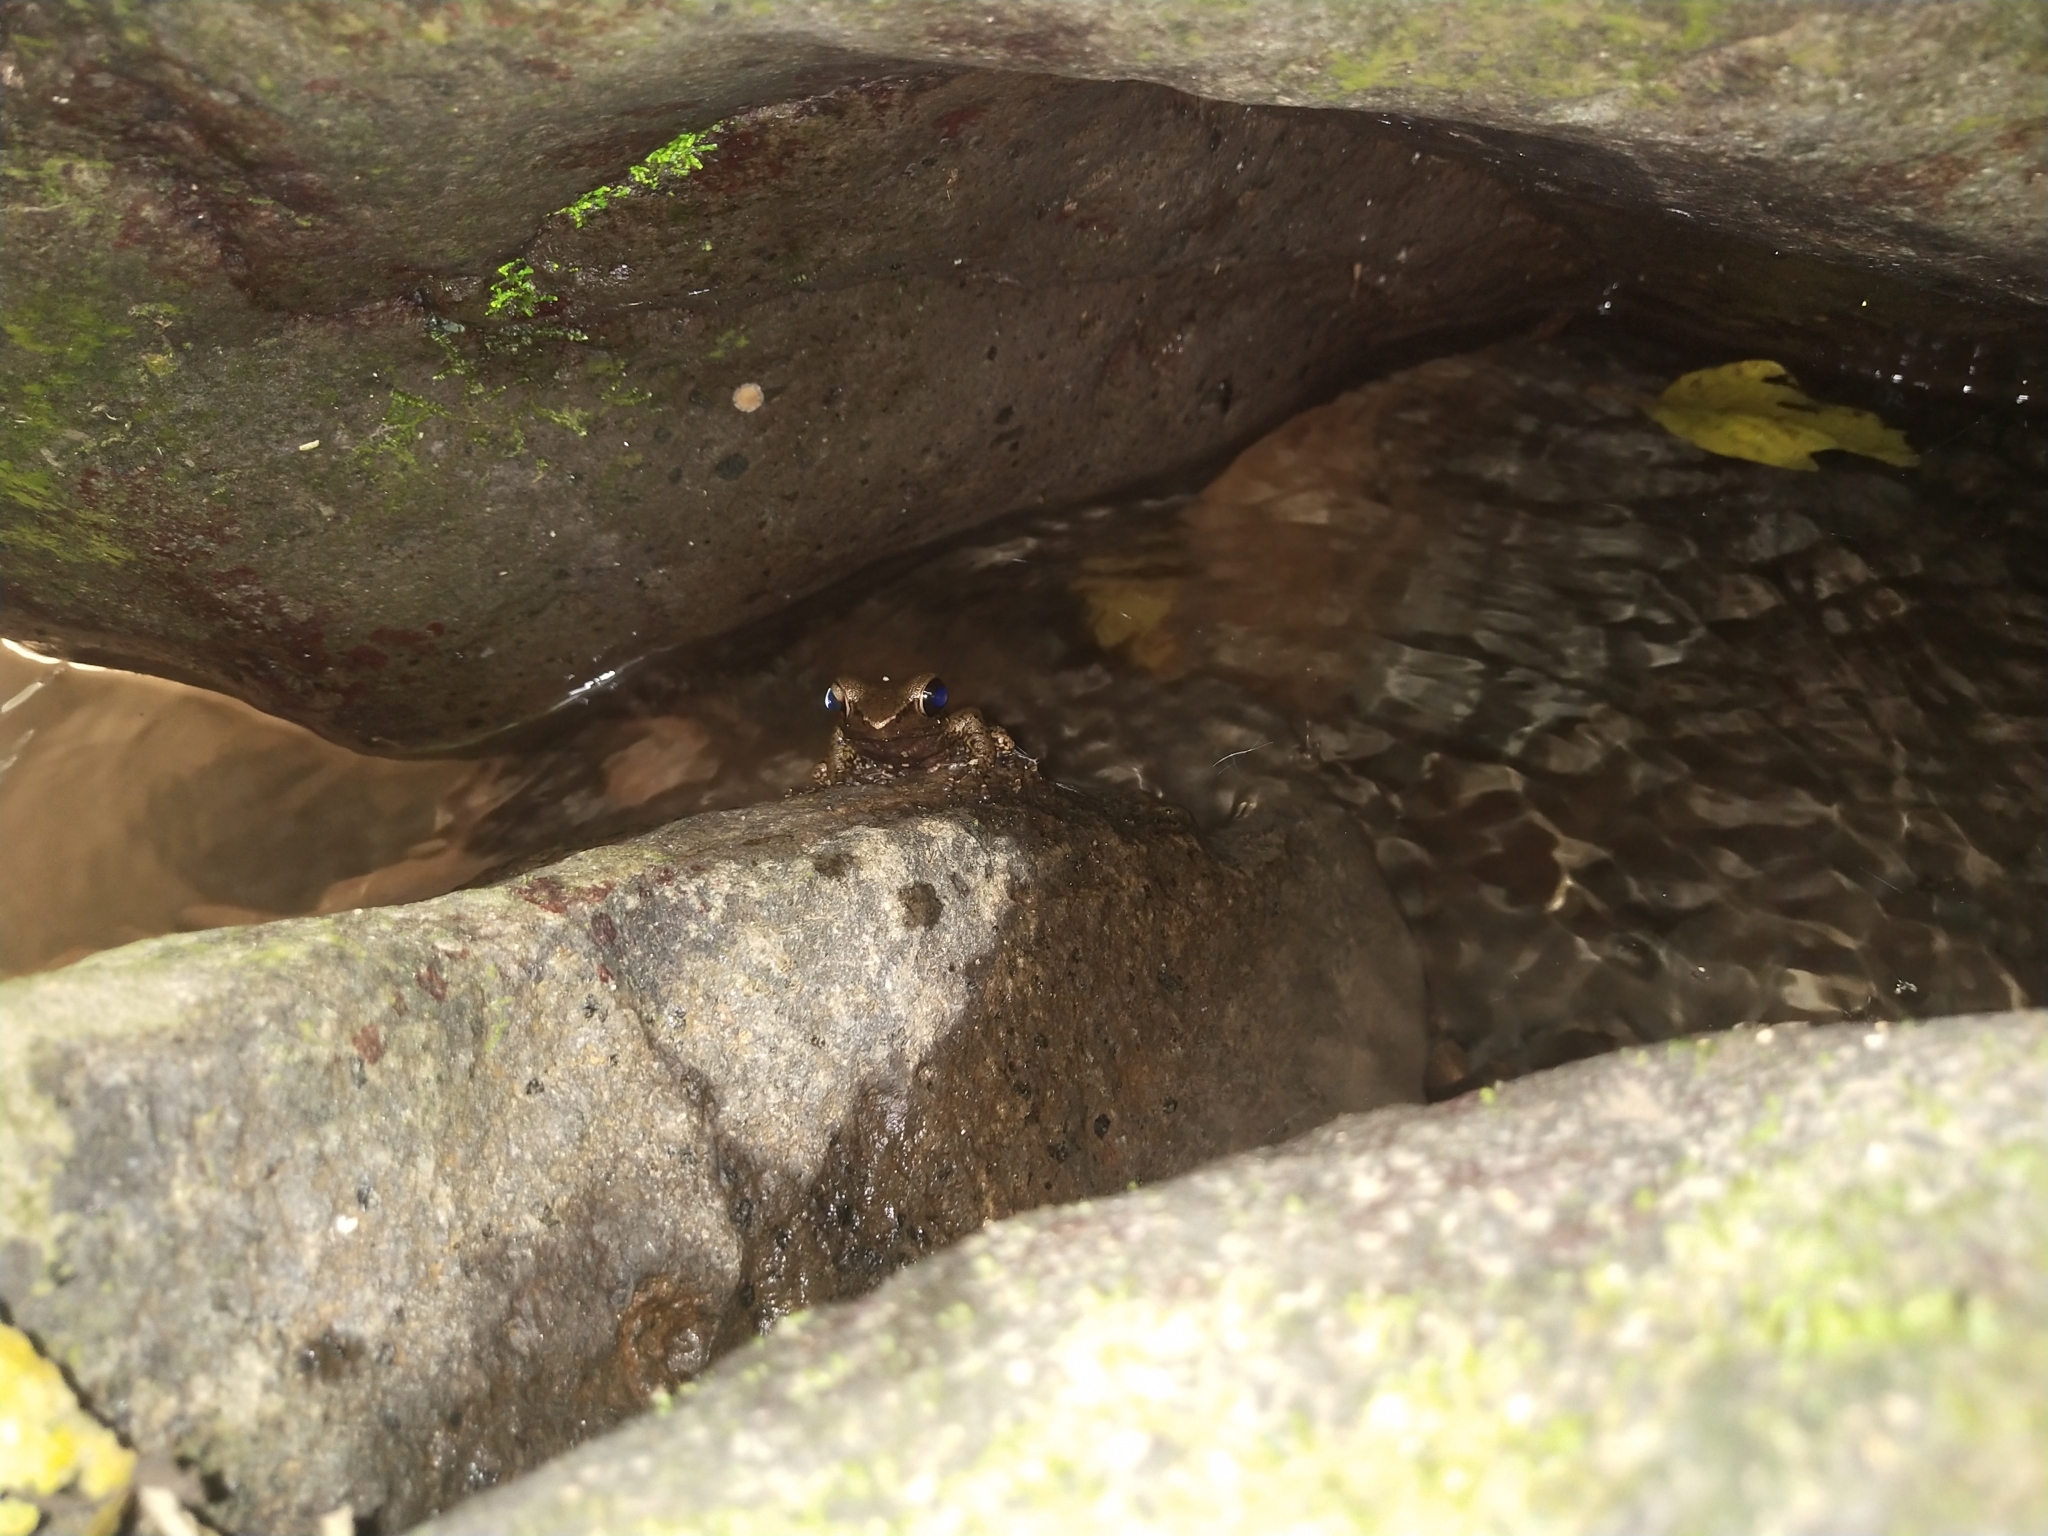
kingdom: Animalia
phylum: Chordata
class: Amphibia
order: Anura
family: Rhacophoridae
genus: Polypedates
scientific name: Polypedates leucomystax
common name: Common tree frog/four-lined tree frog
